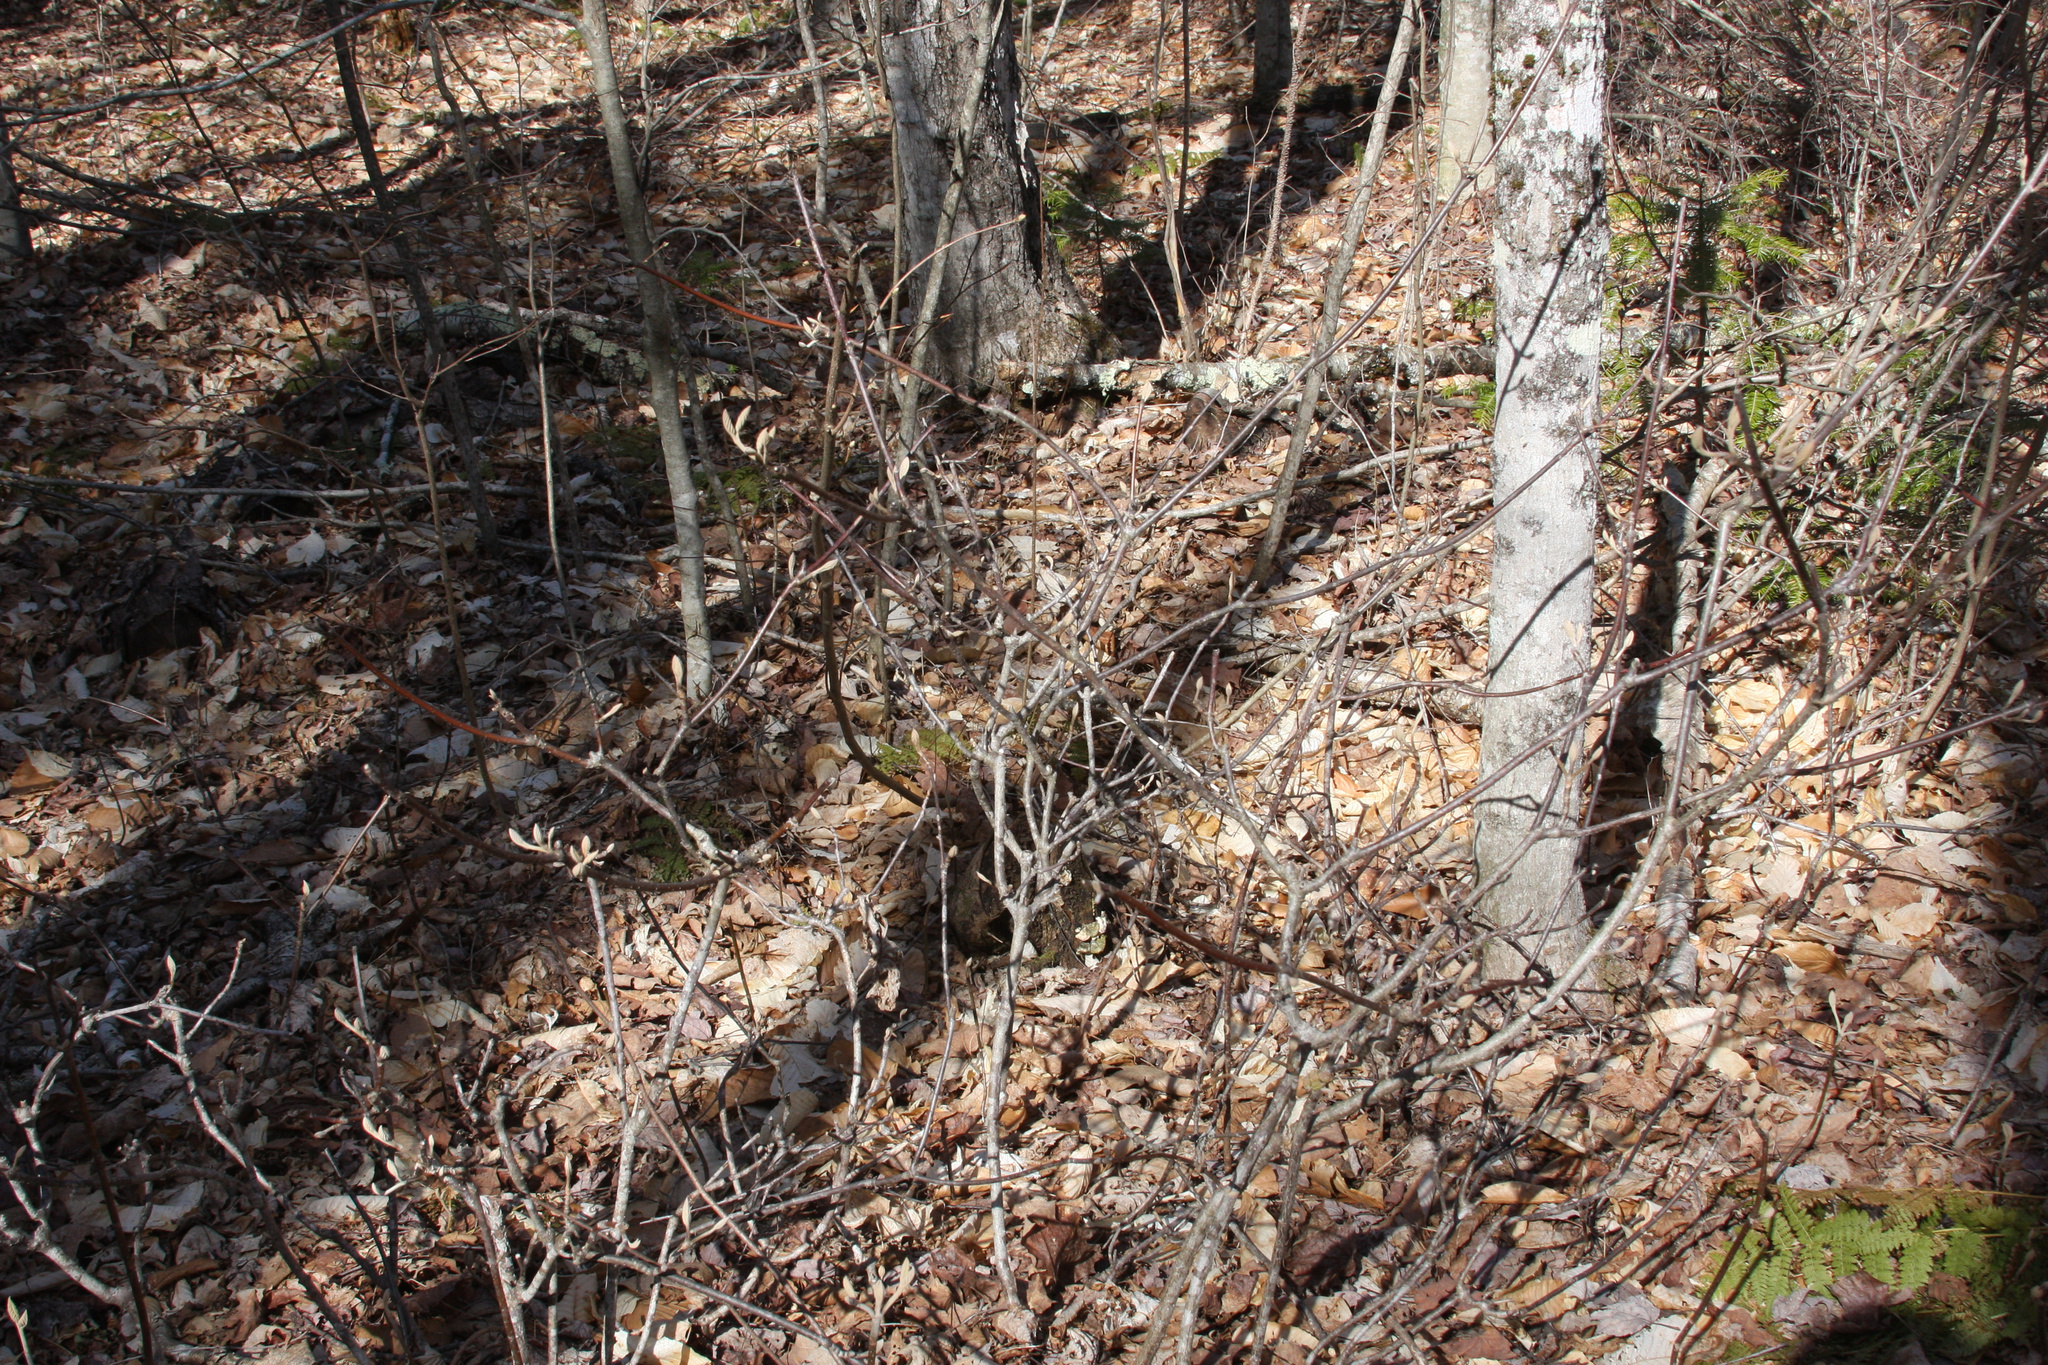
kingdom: Plantae
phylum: Tracheophyta
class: Magnoliopsida
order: Dipsacales
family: Viburnaceae
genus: Viburnum
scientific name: Viburnum lantanoides
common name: Hobblebush
